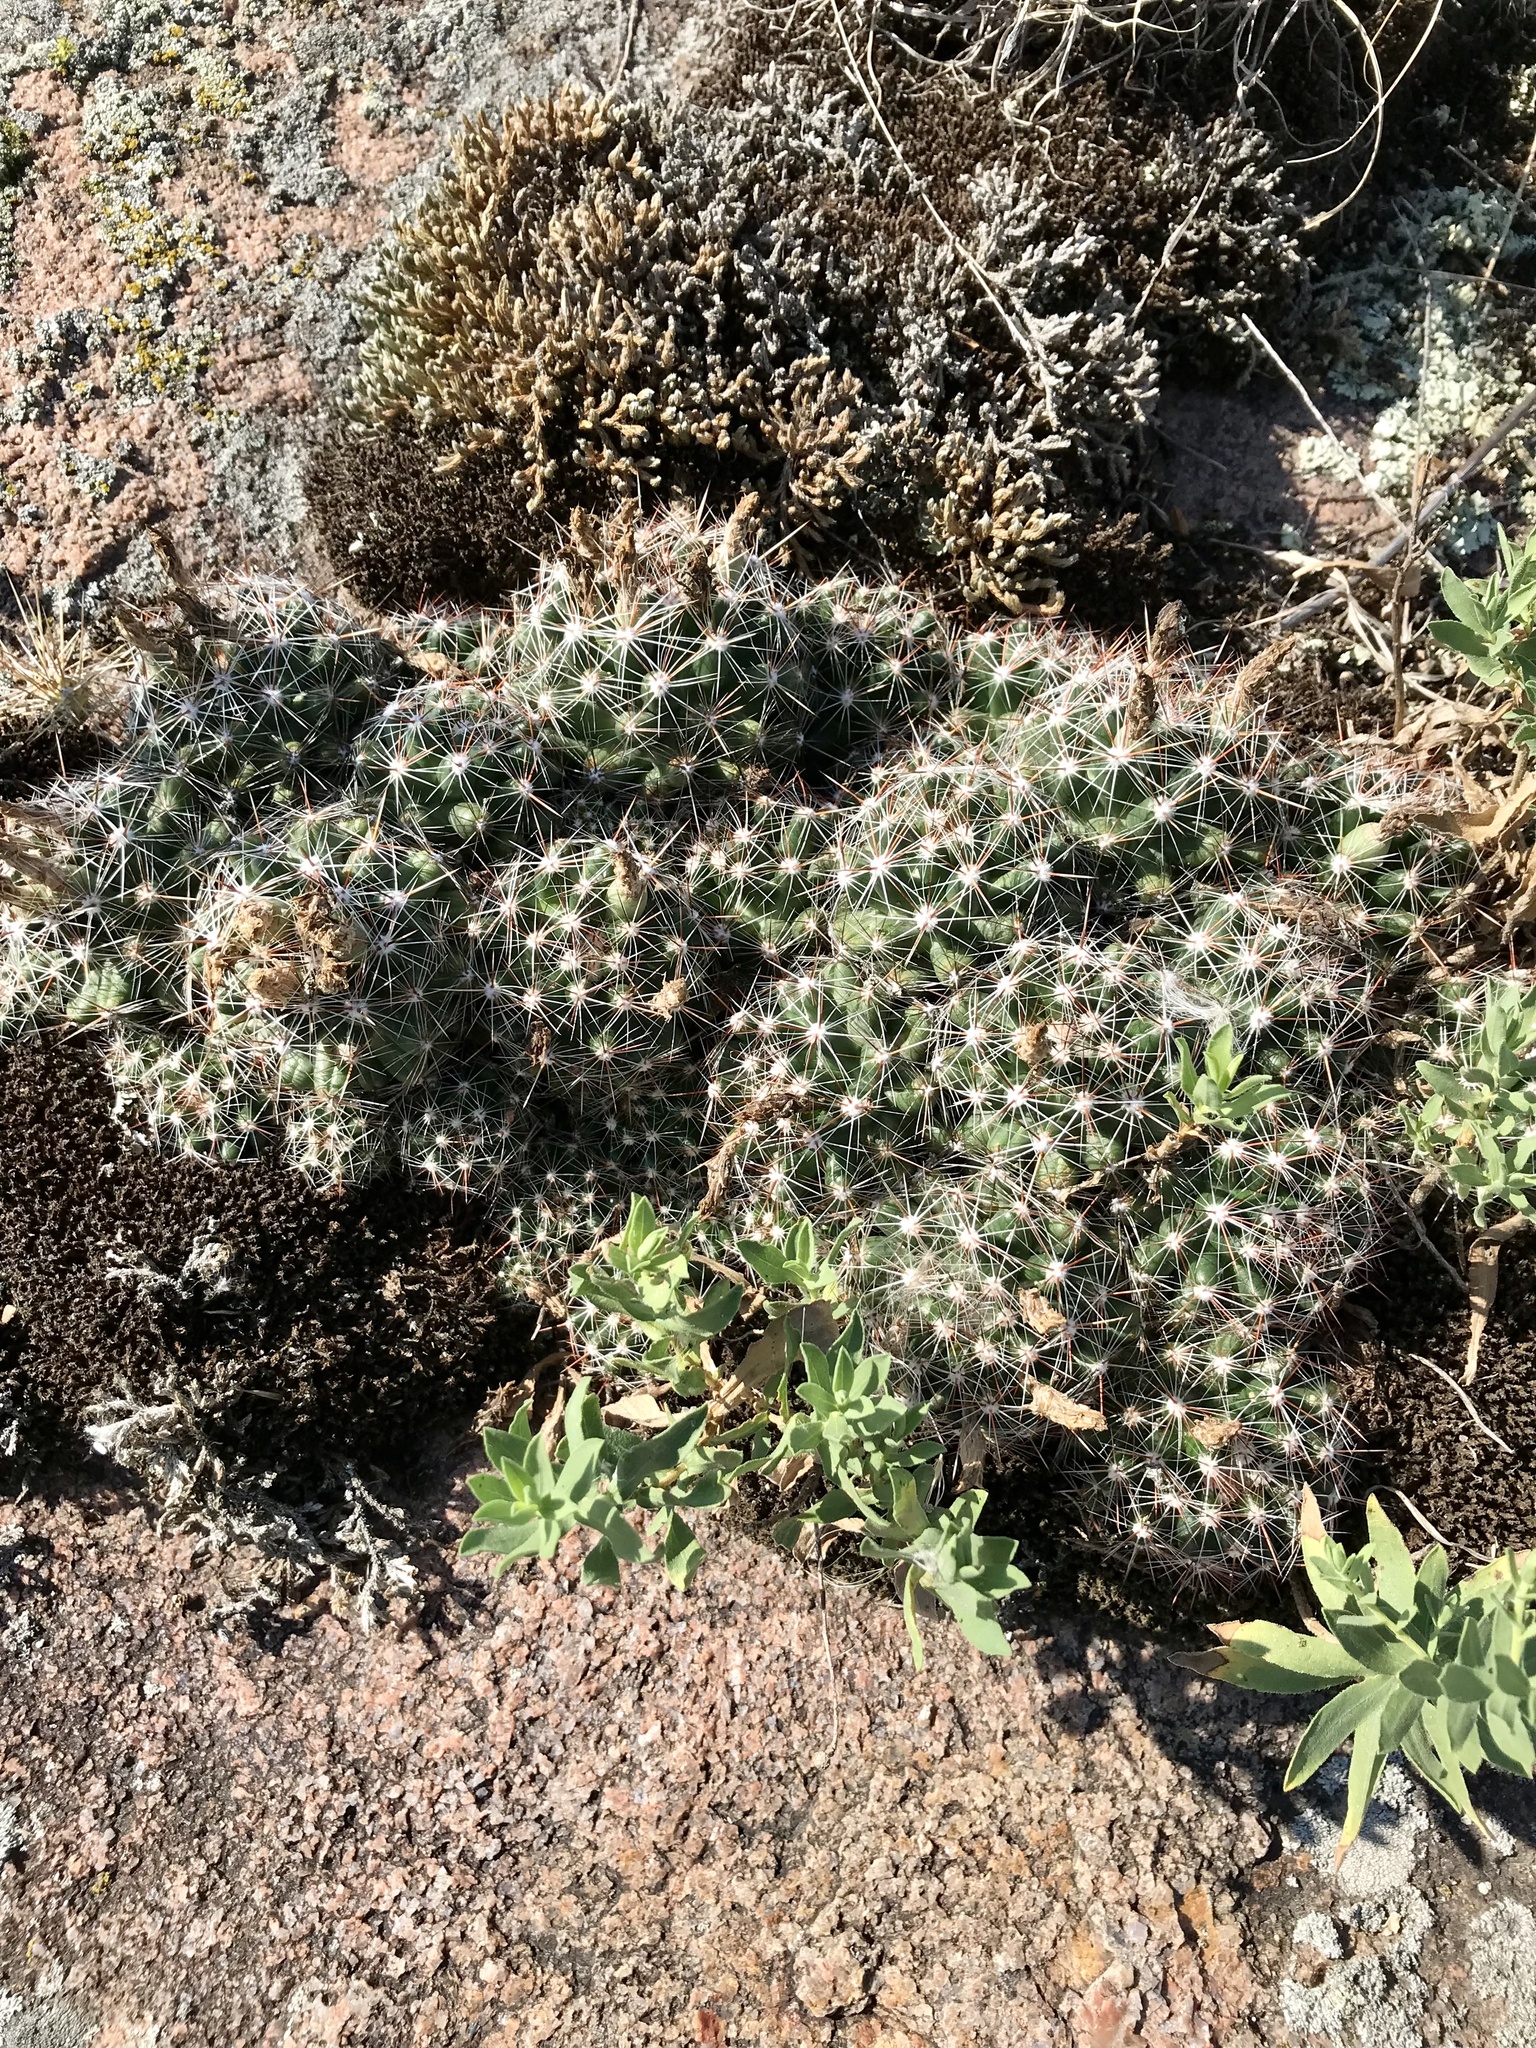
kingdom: Plantae
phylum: Tracheophyta
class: Magnoliopsida
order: Caryophyllales
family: Cactaceae
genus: Pelecyphora
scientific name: Pelecyphora vivipara
